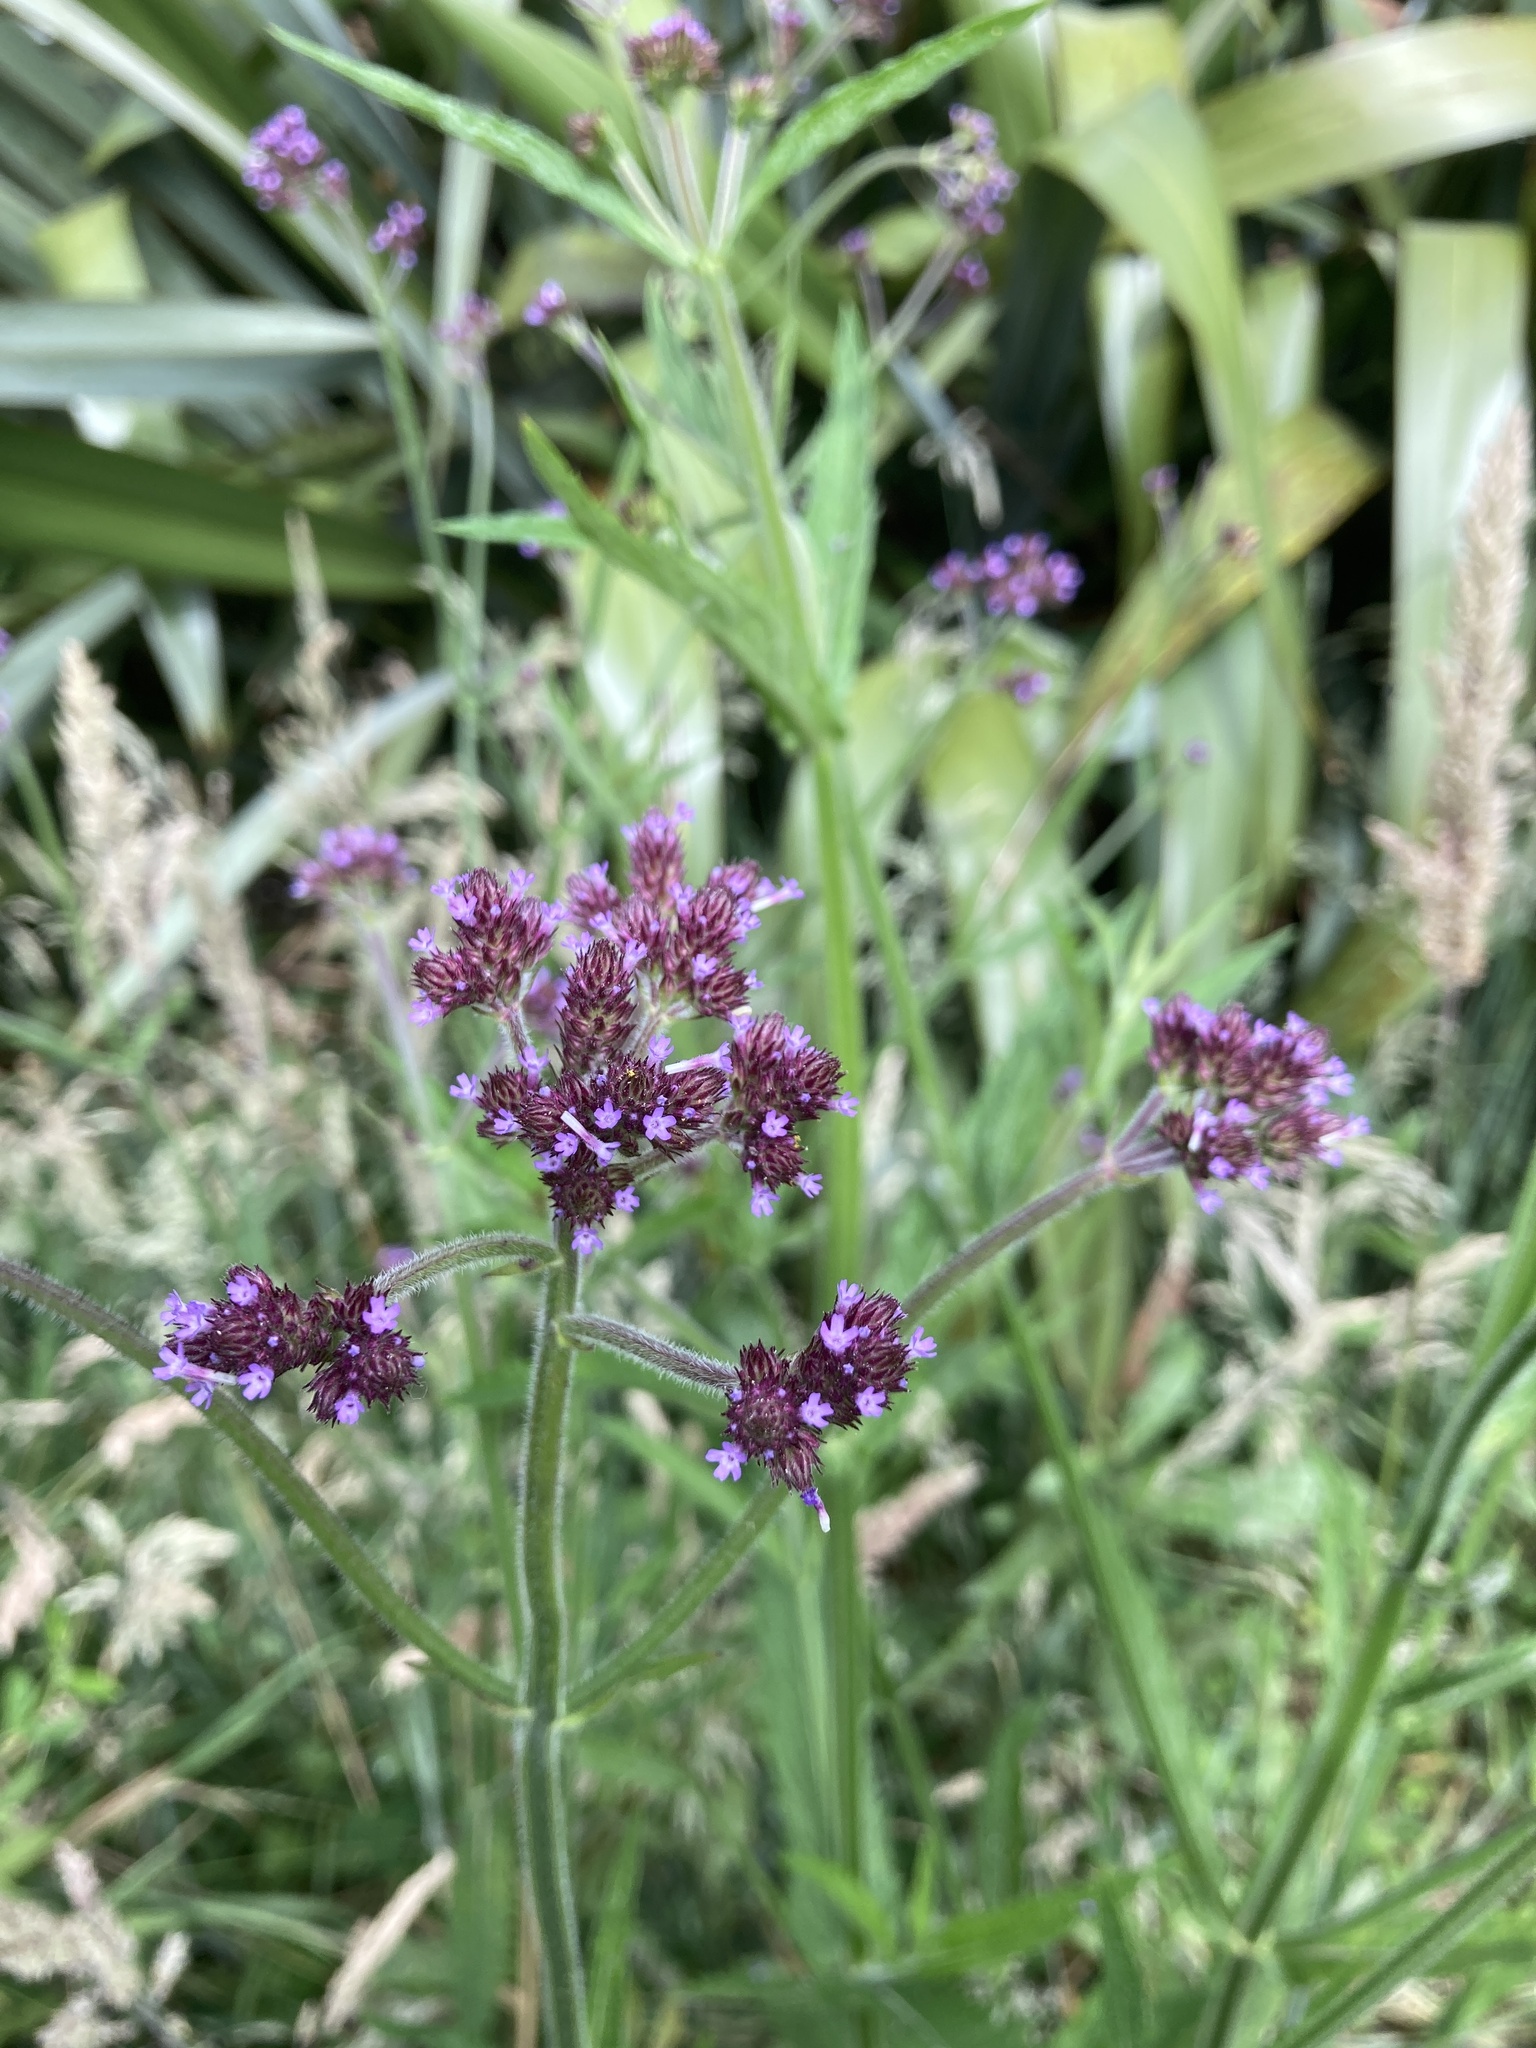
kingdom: Plantae
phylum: Tracheophyta
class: Magnoliopsida
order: Lamiales
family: Verbenaceae
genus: Verbena
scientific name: Verbena incompta
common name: Purpletop vervain
